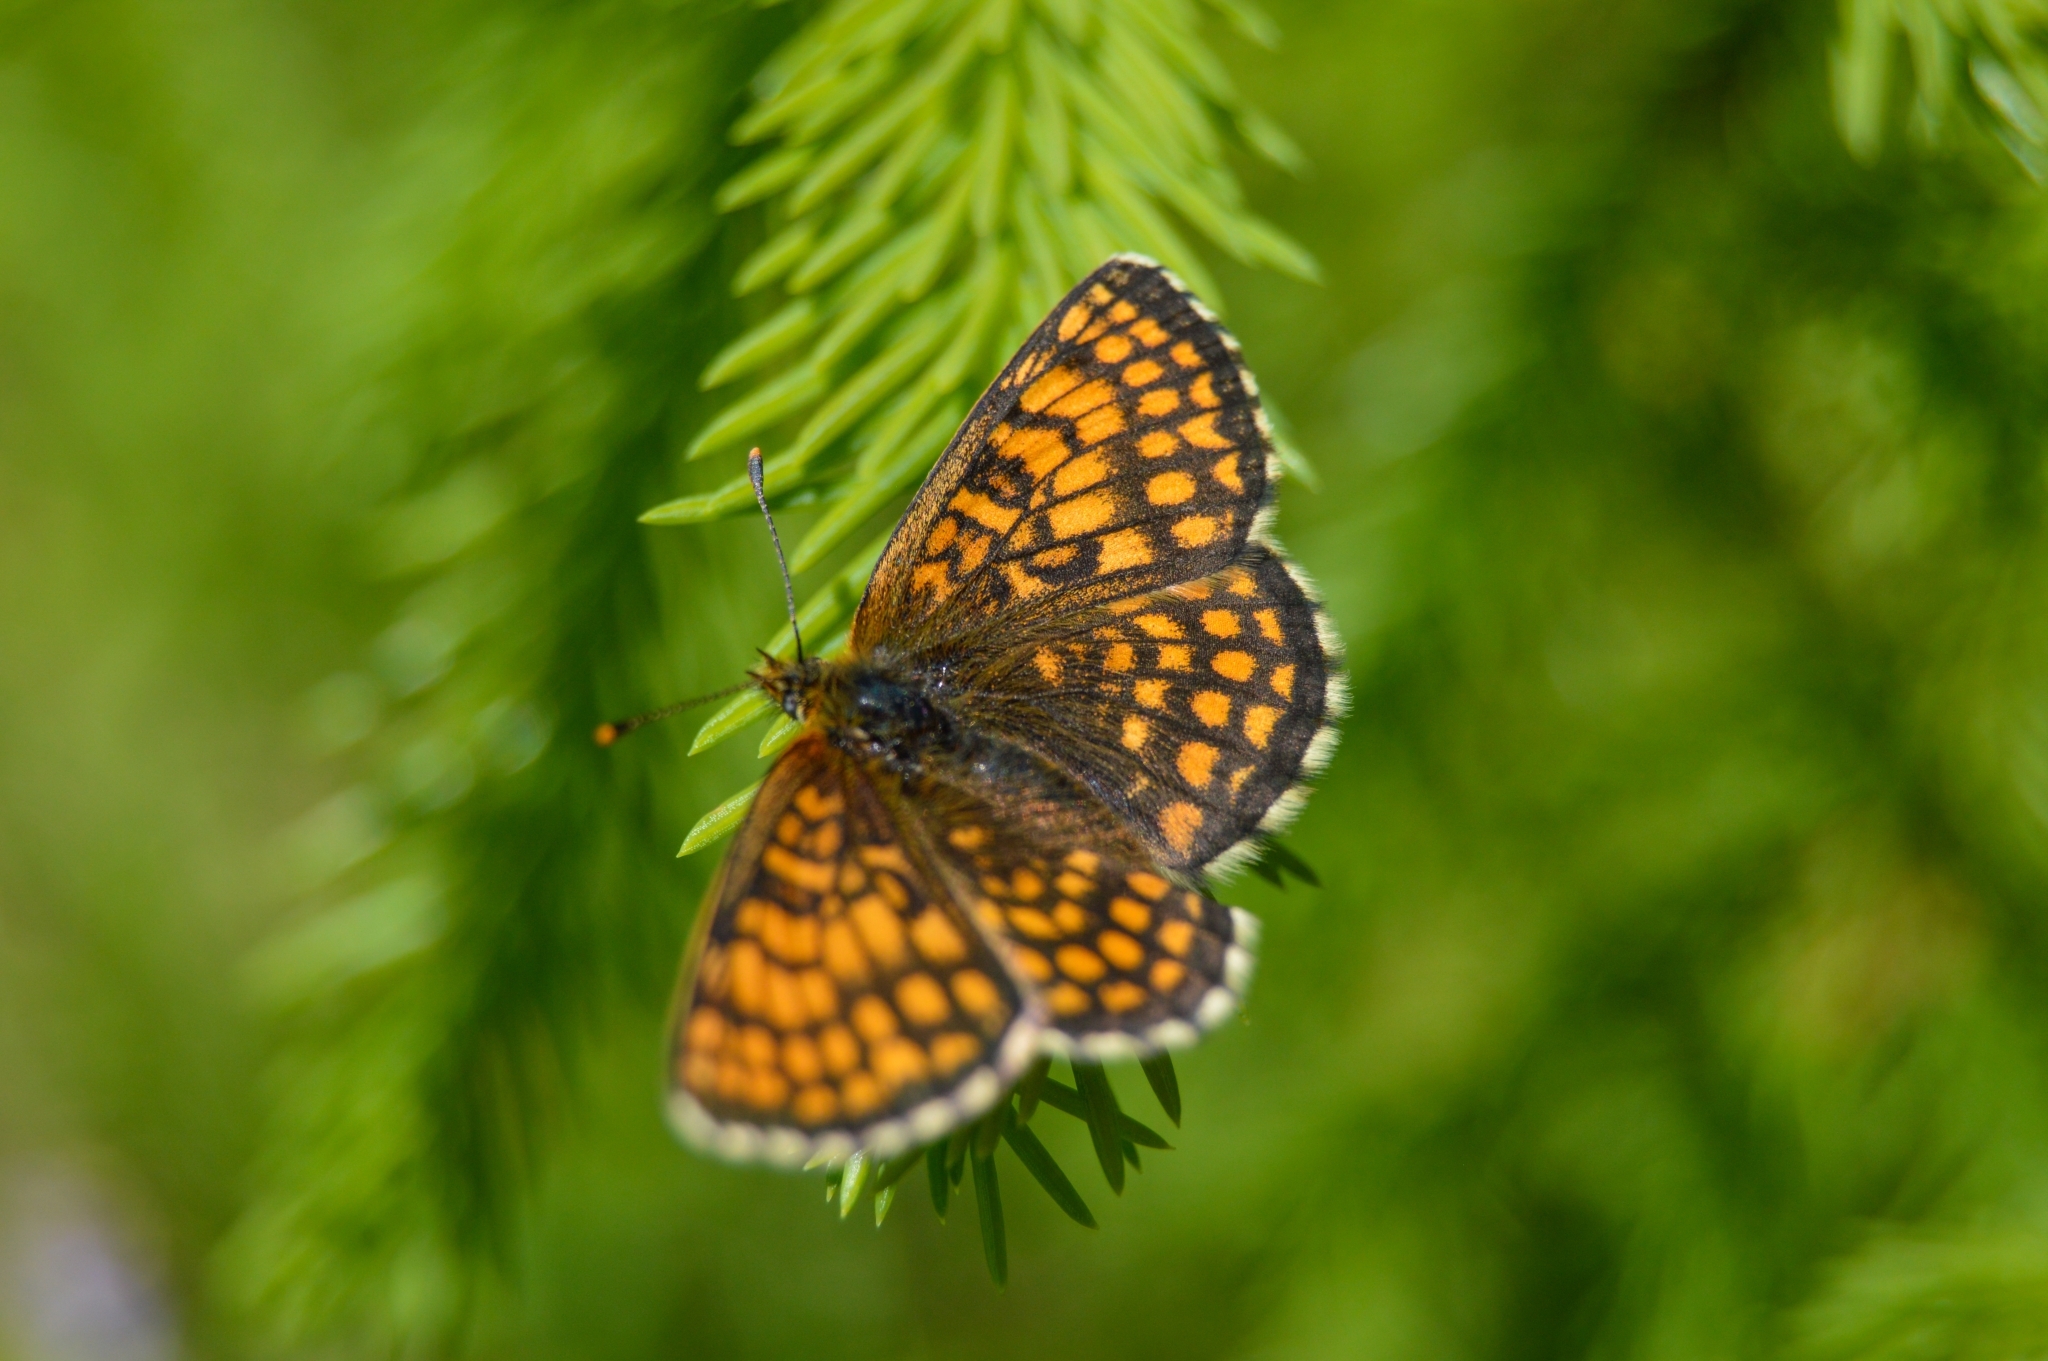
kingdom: Animalia
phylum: Arthropoda
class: Insecta
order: Lepidoptera
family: Nymphalidae
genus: Melitaea
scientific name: Melitaea athalia
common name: Heath fritillary
